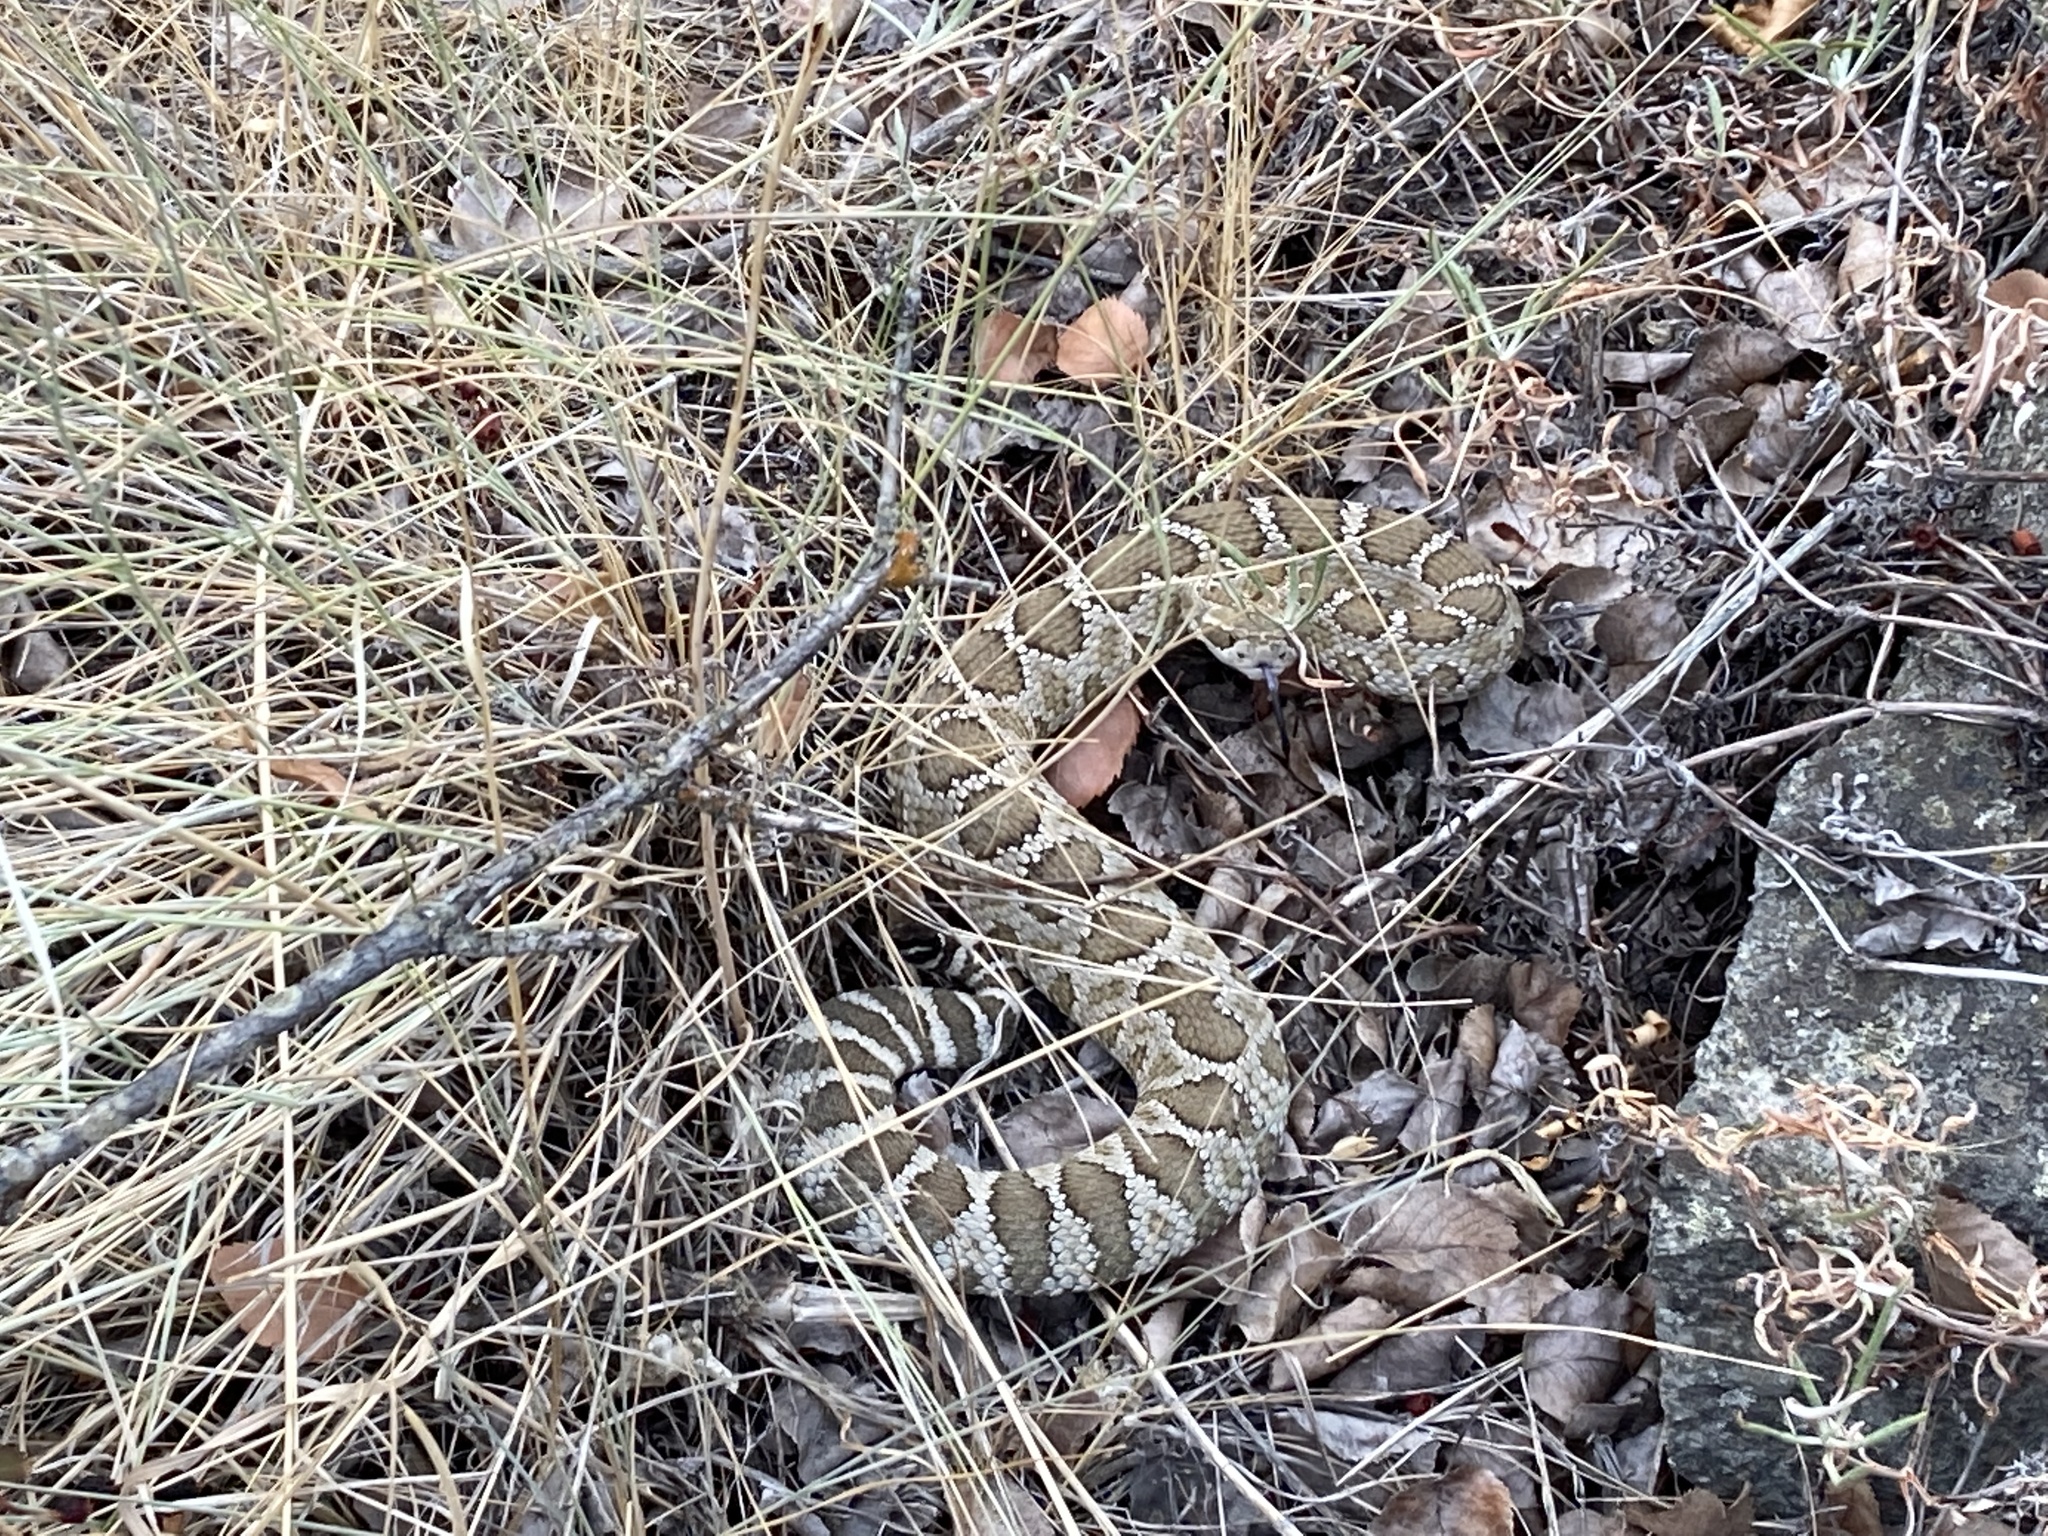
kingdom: Animalia
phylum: Chordata
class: Squamata
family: Viperidae
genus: Crotalus
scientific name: Crotalus oreganus
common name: Abyssus
